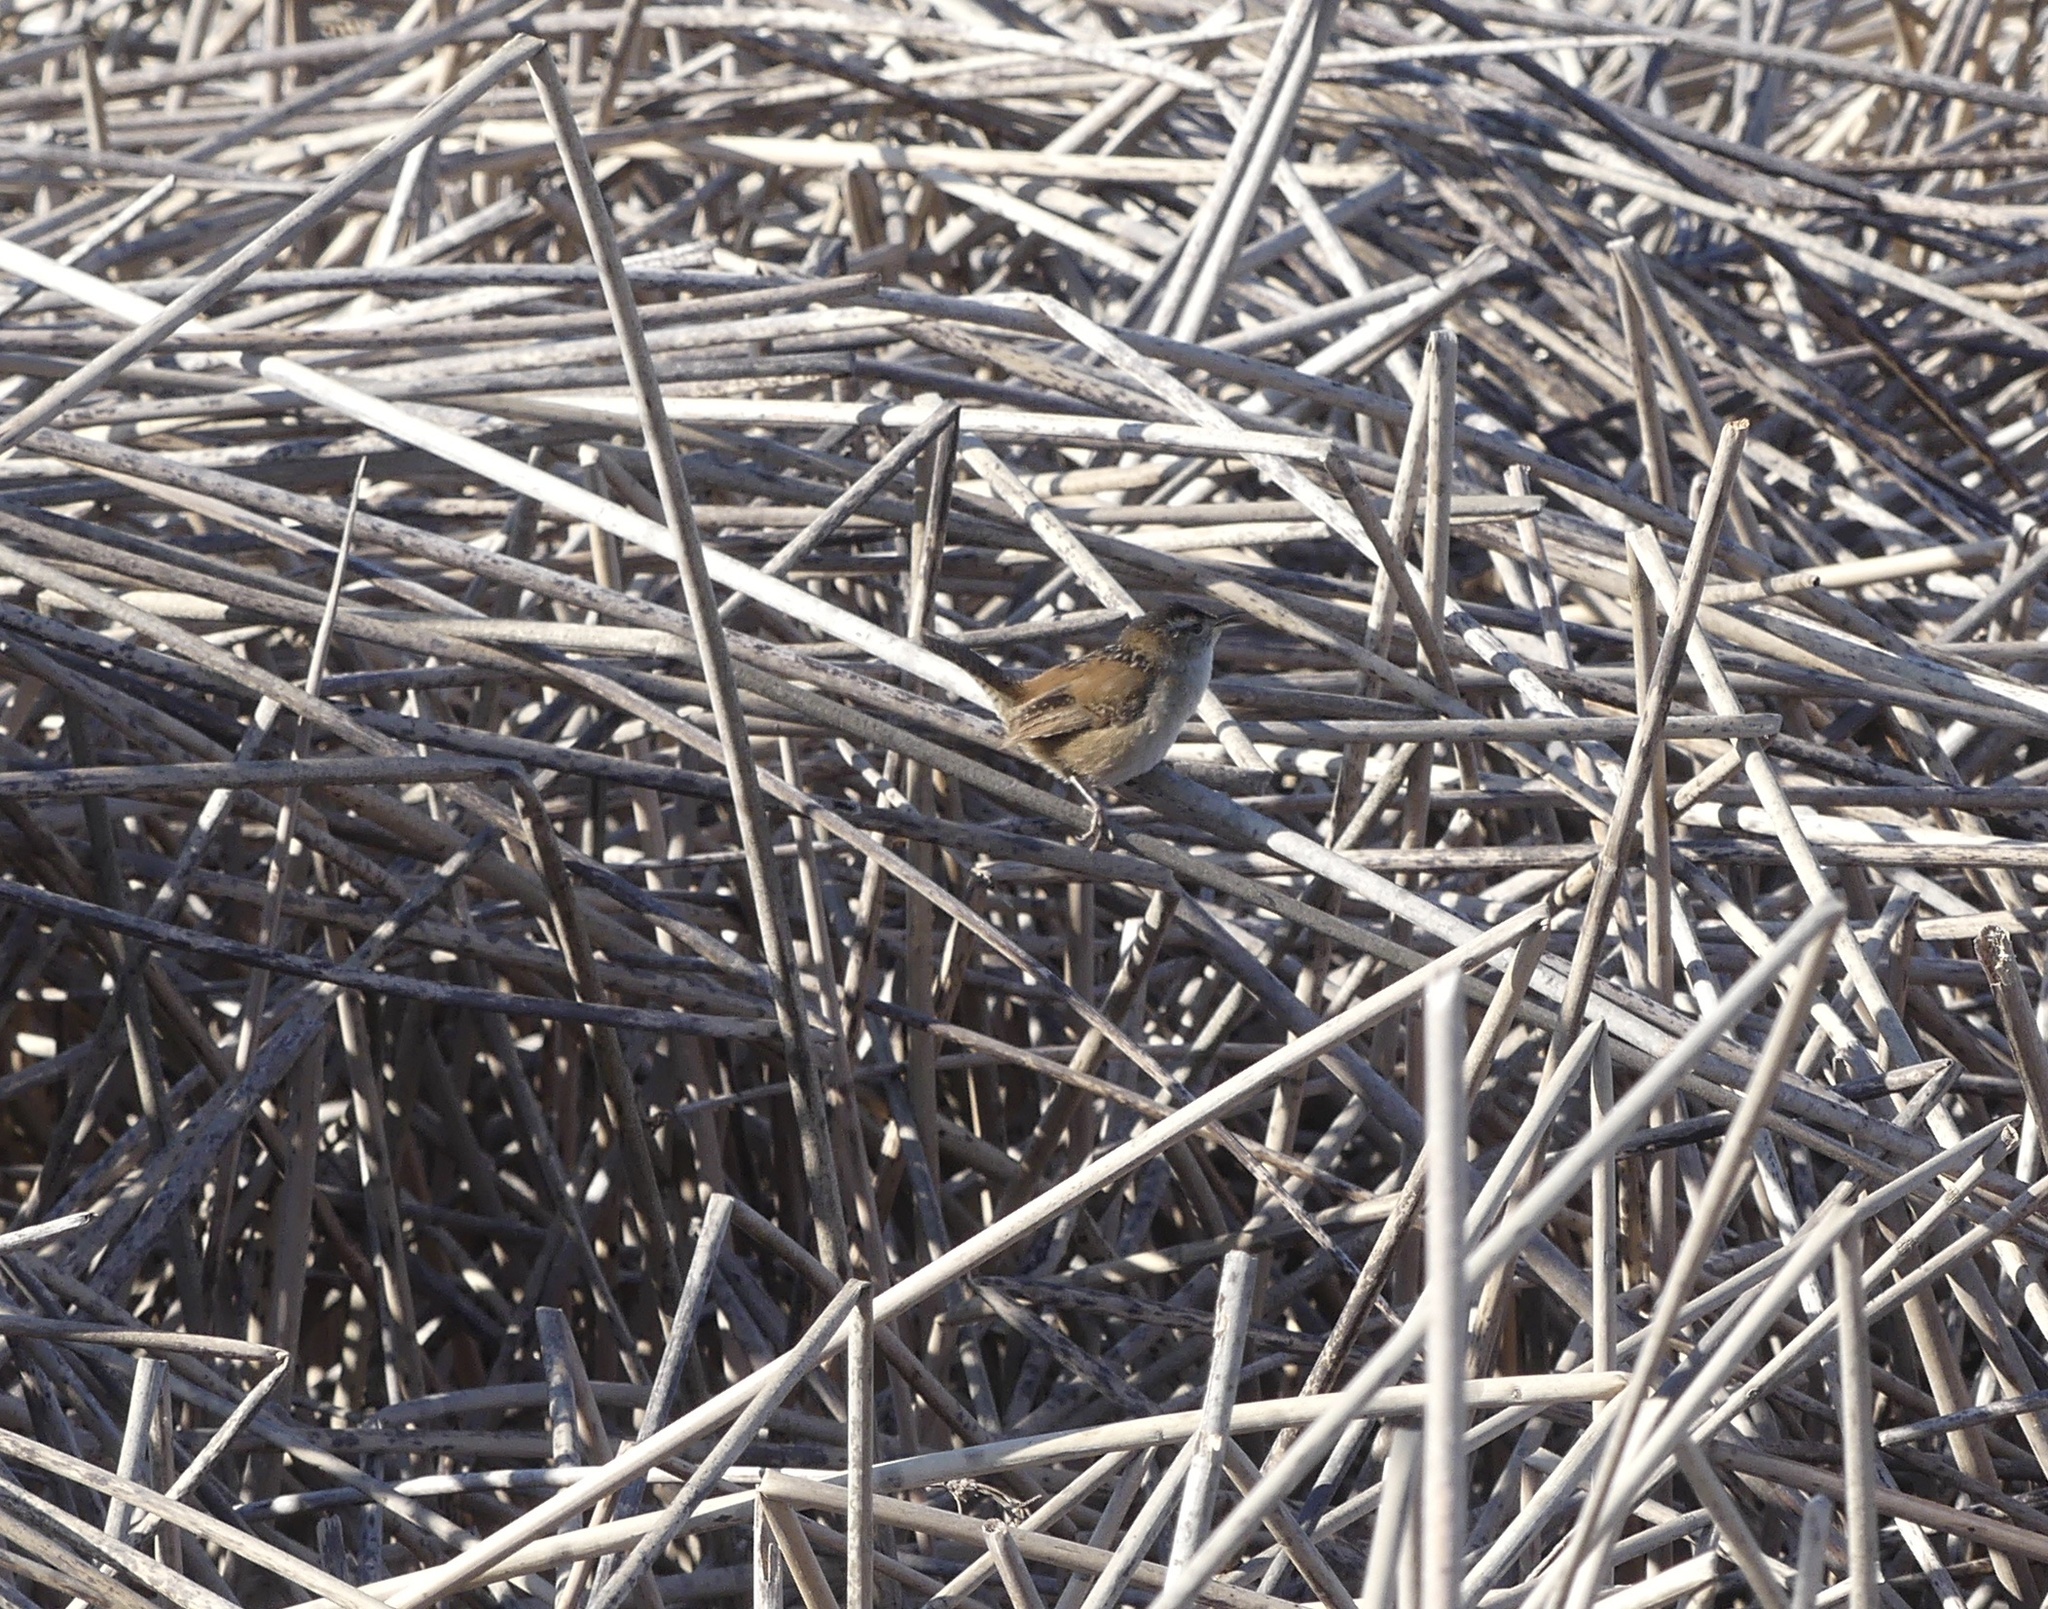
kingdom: Animalia
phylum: Chordata
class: Aves
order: Passeriformes
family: Troglodytidae
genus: Cistothorus
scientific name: Cistothorus palustris
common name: Marsh wren
